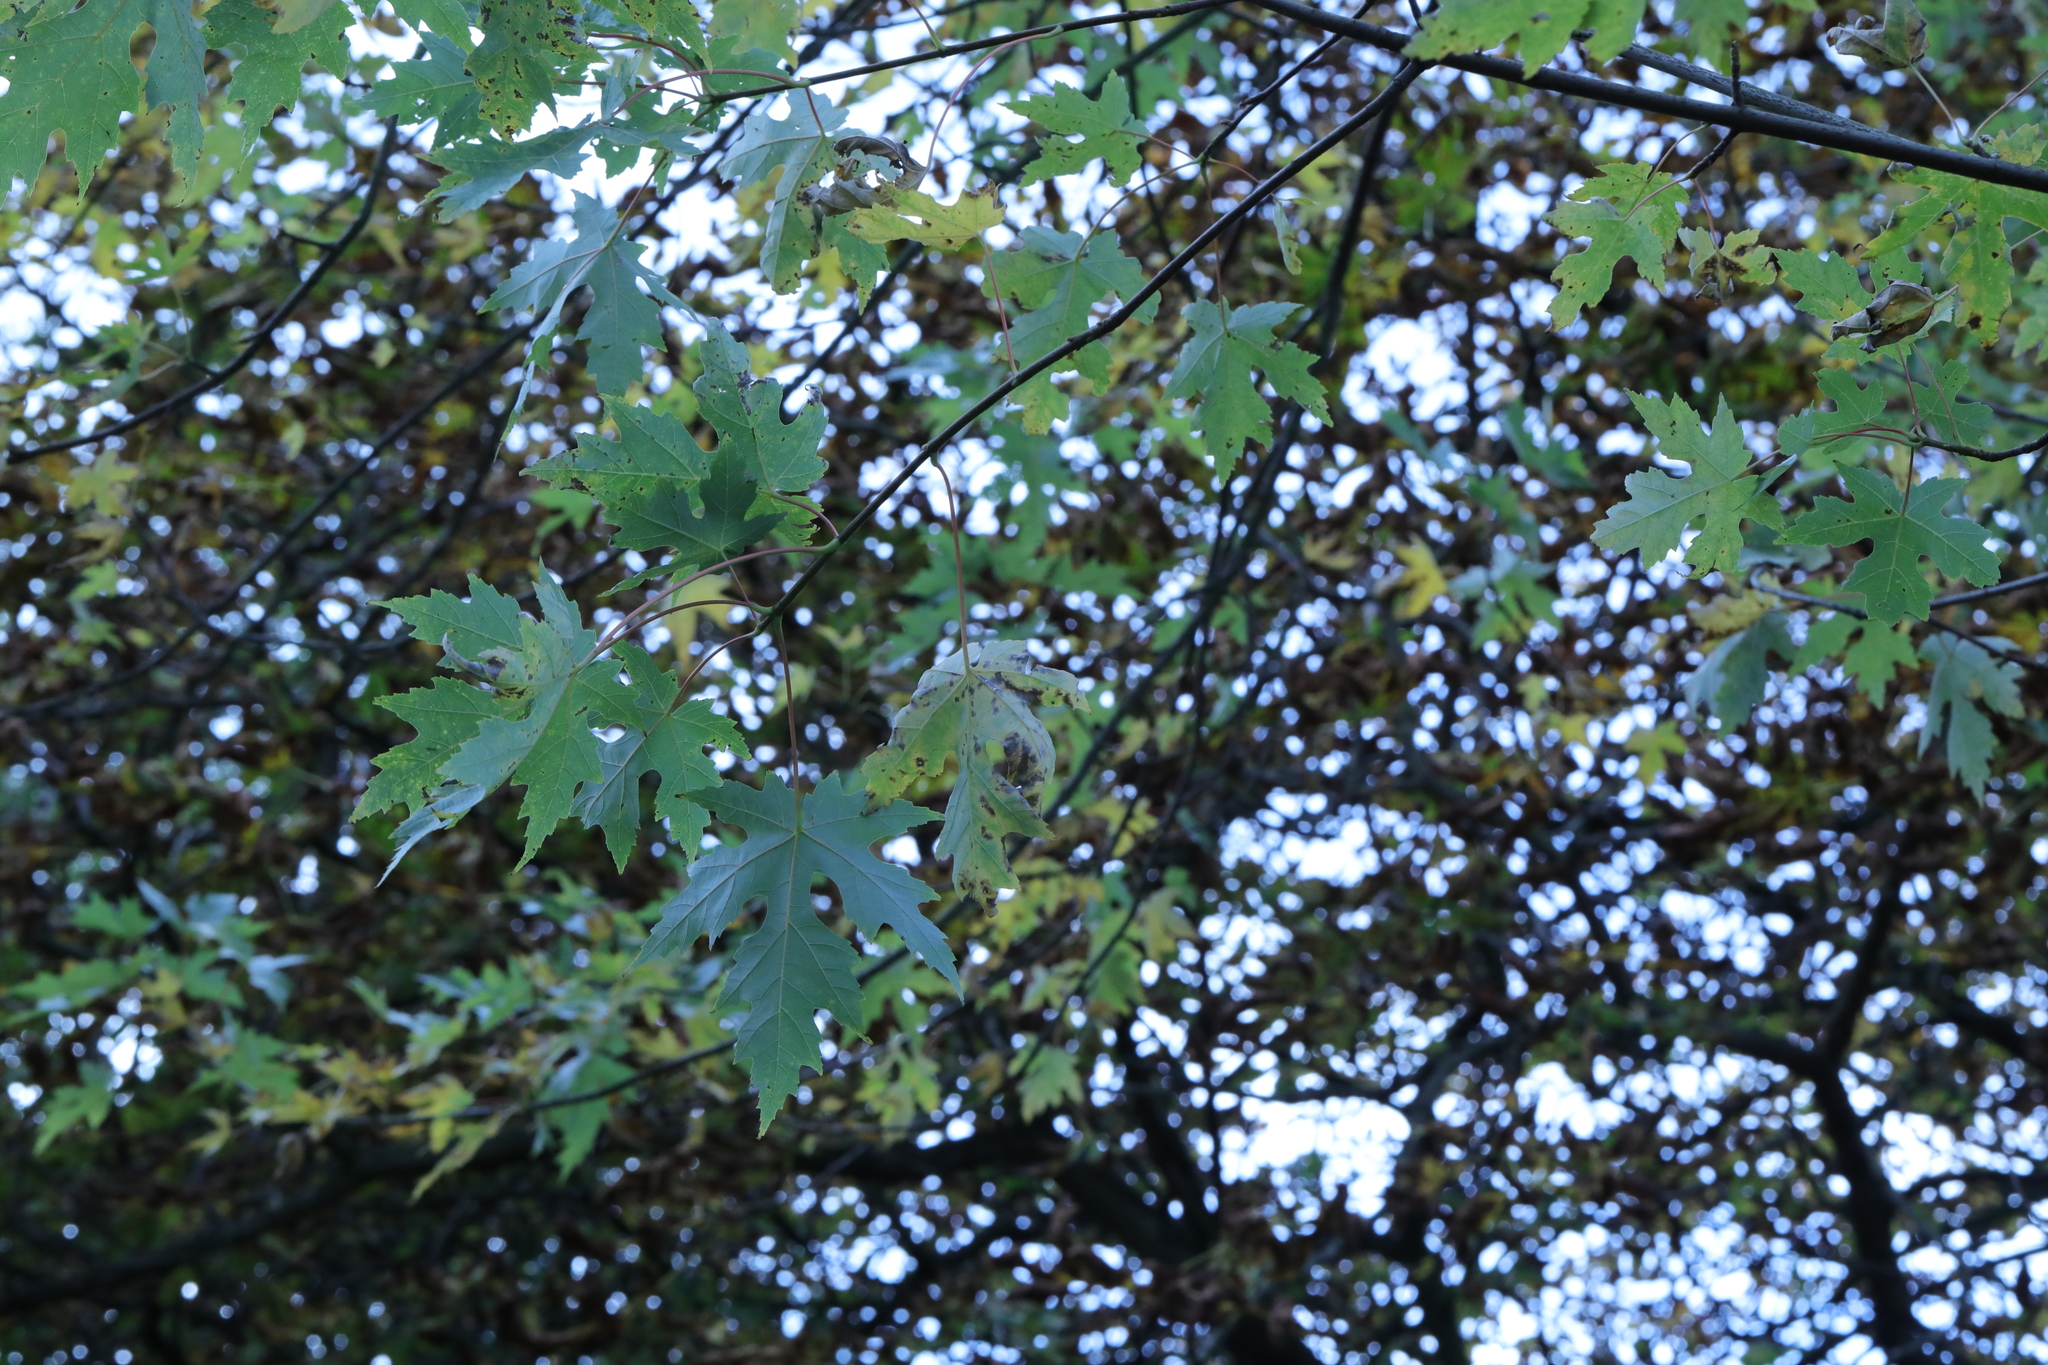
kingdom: Plantae
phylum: Tracheophyta
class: Magnoliopsida
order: Sapindales
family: Sapindaceae
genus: Acer
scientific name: Acer saccharinum
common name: Silver maple
